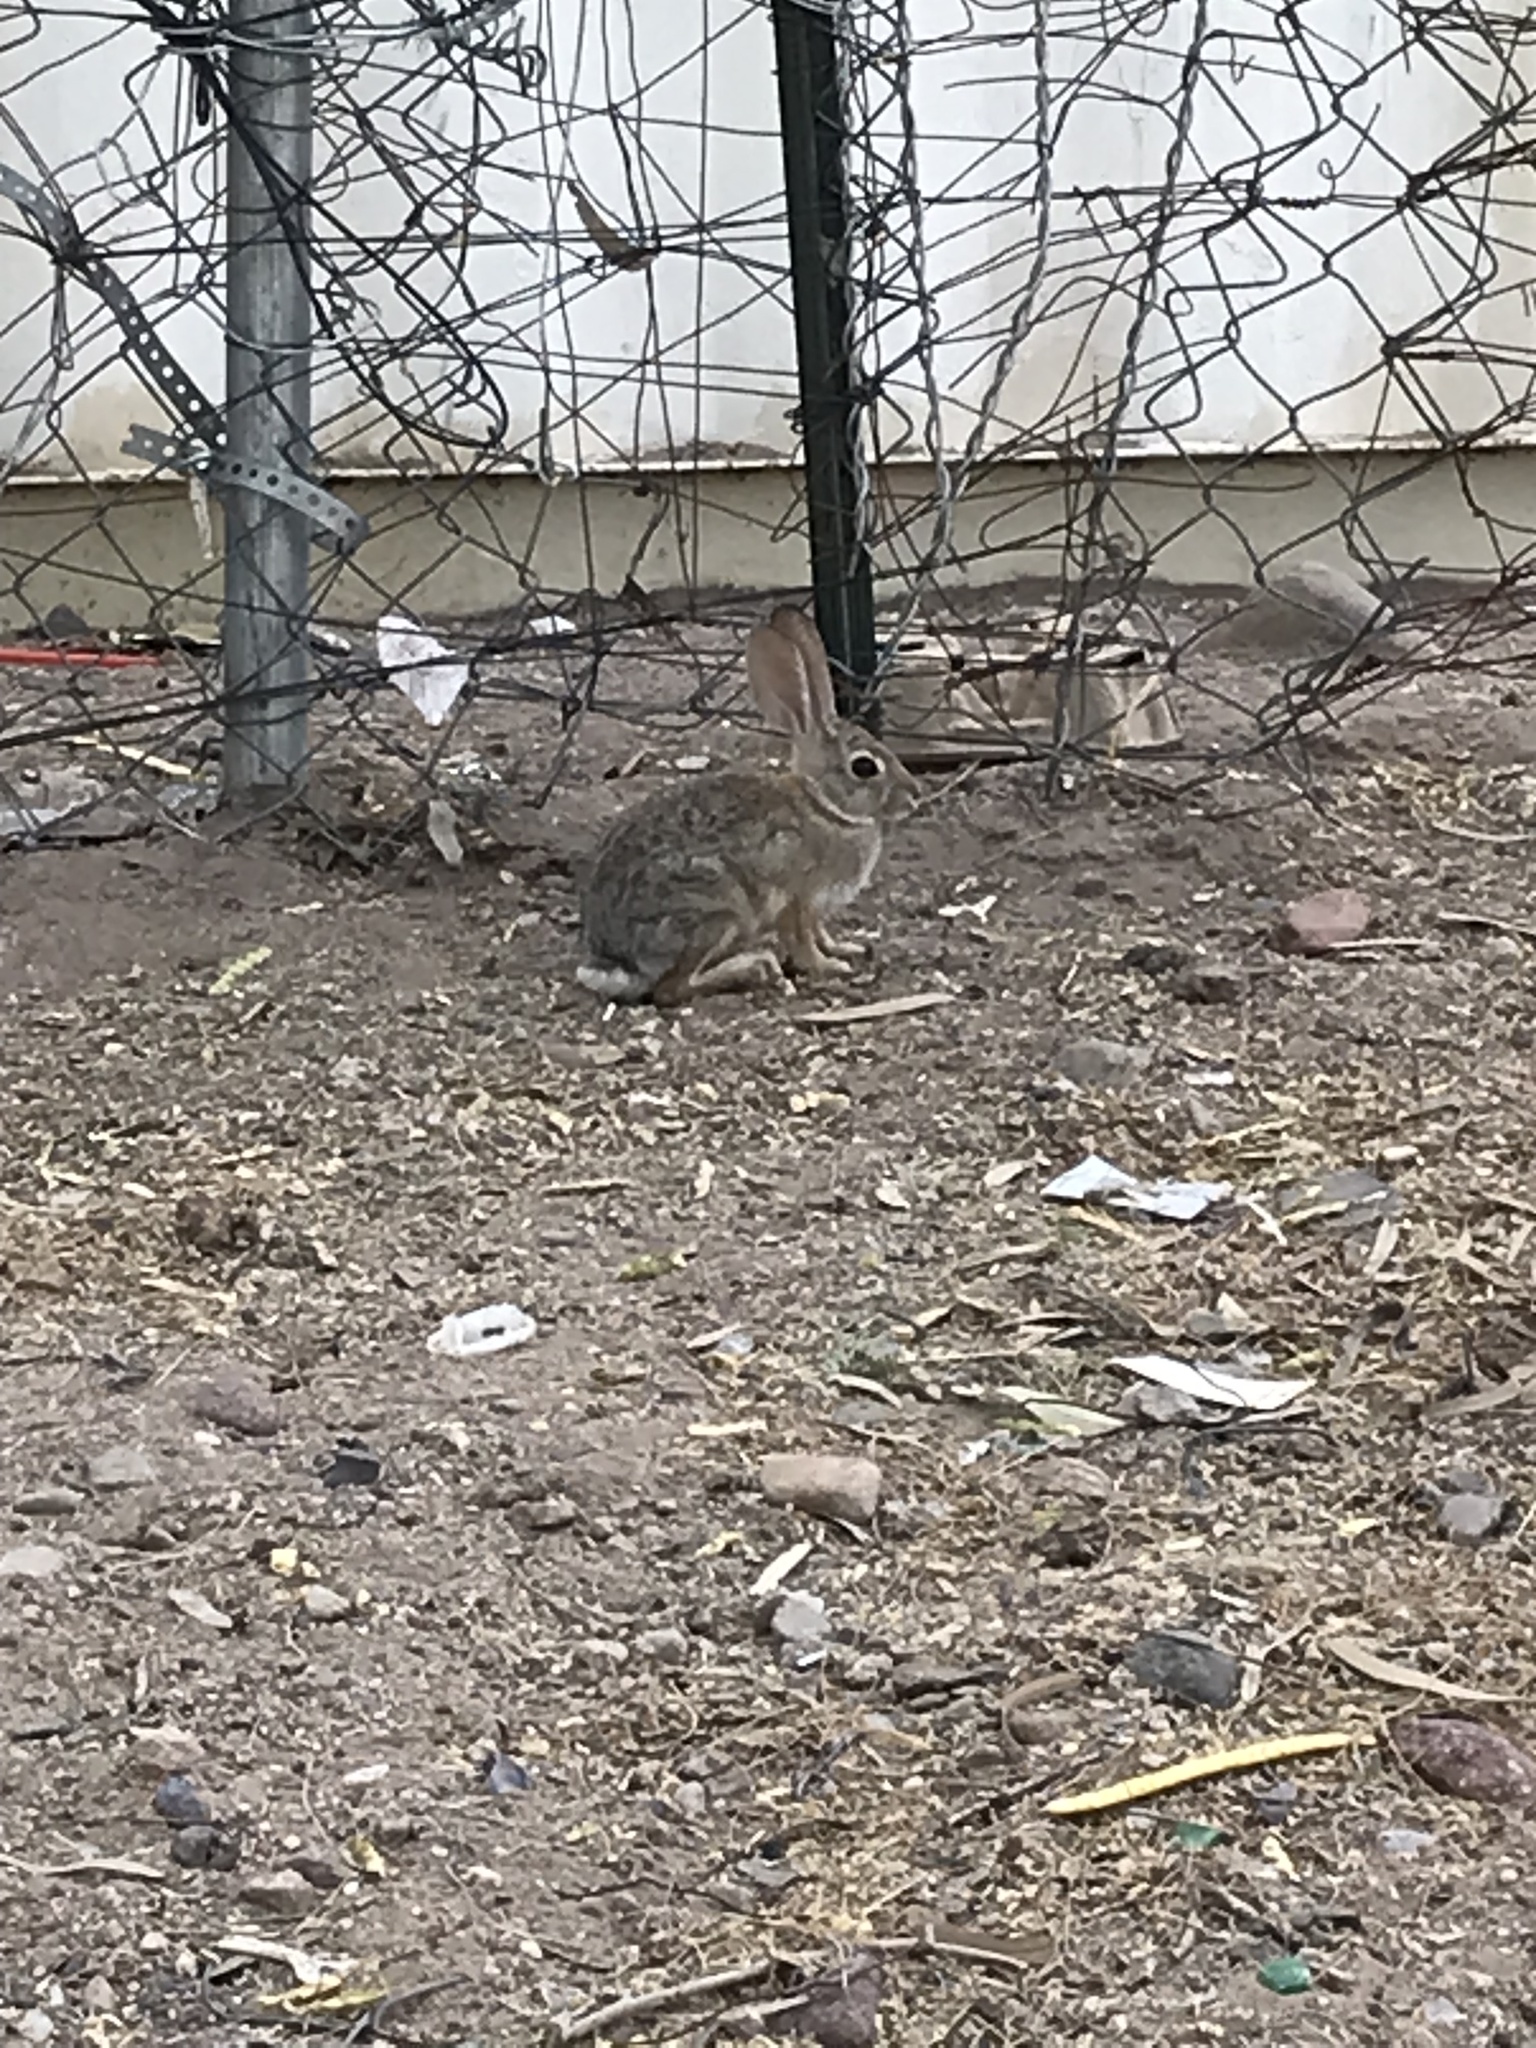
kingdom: Animalia
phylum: Chordata
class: Mammalia
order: Lagomorpha
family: Leporidae
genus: Sylvilagus
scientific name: Sylvilagus audubonii
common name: Desert cottontail
